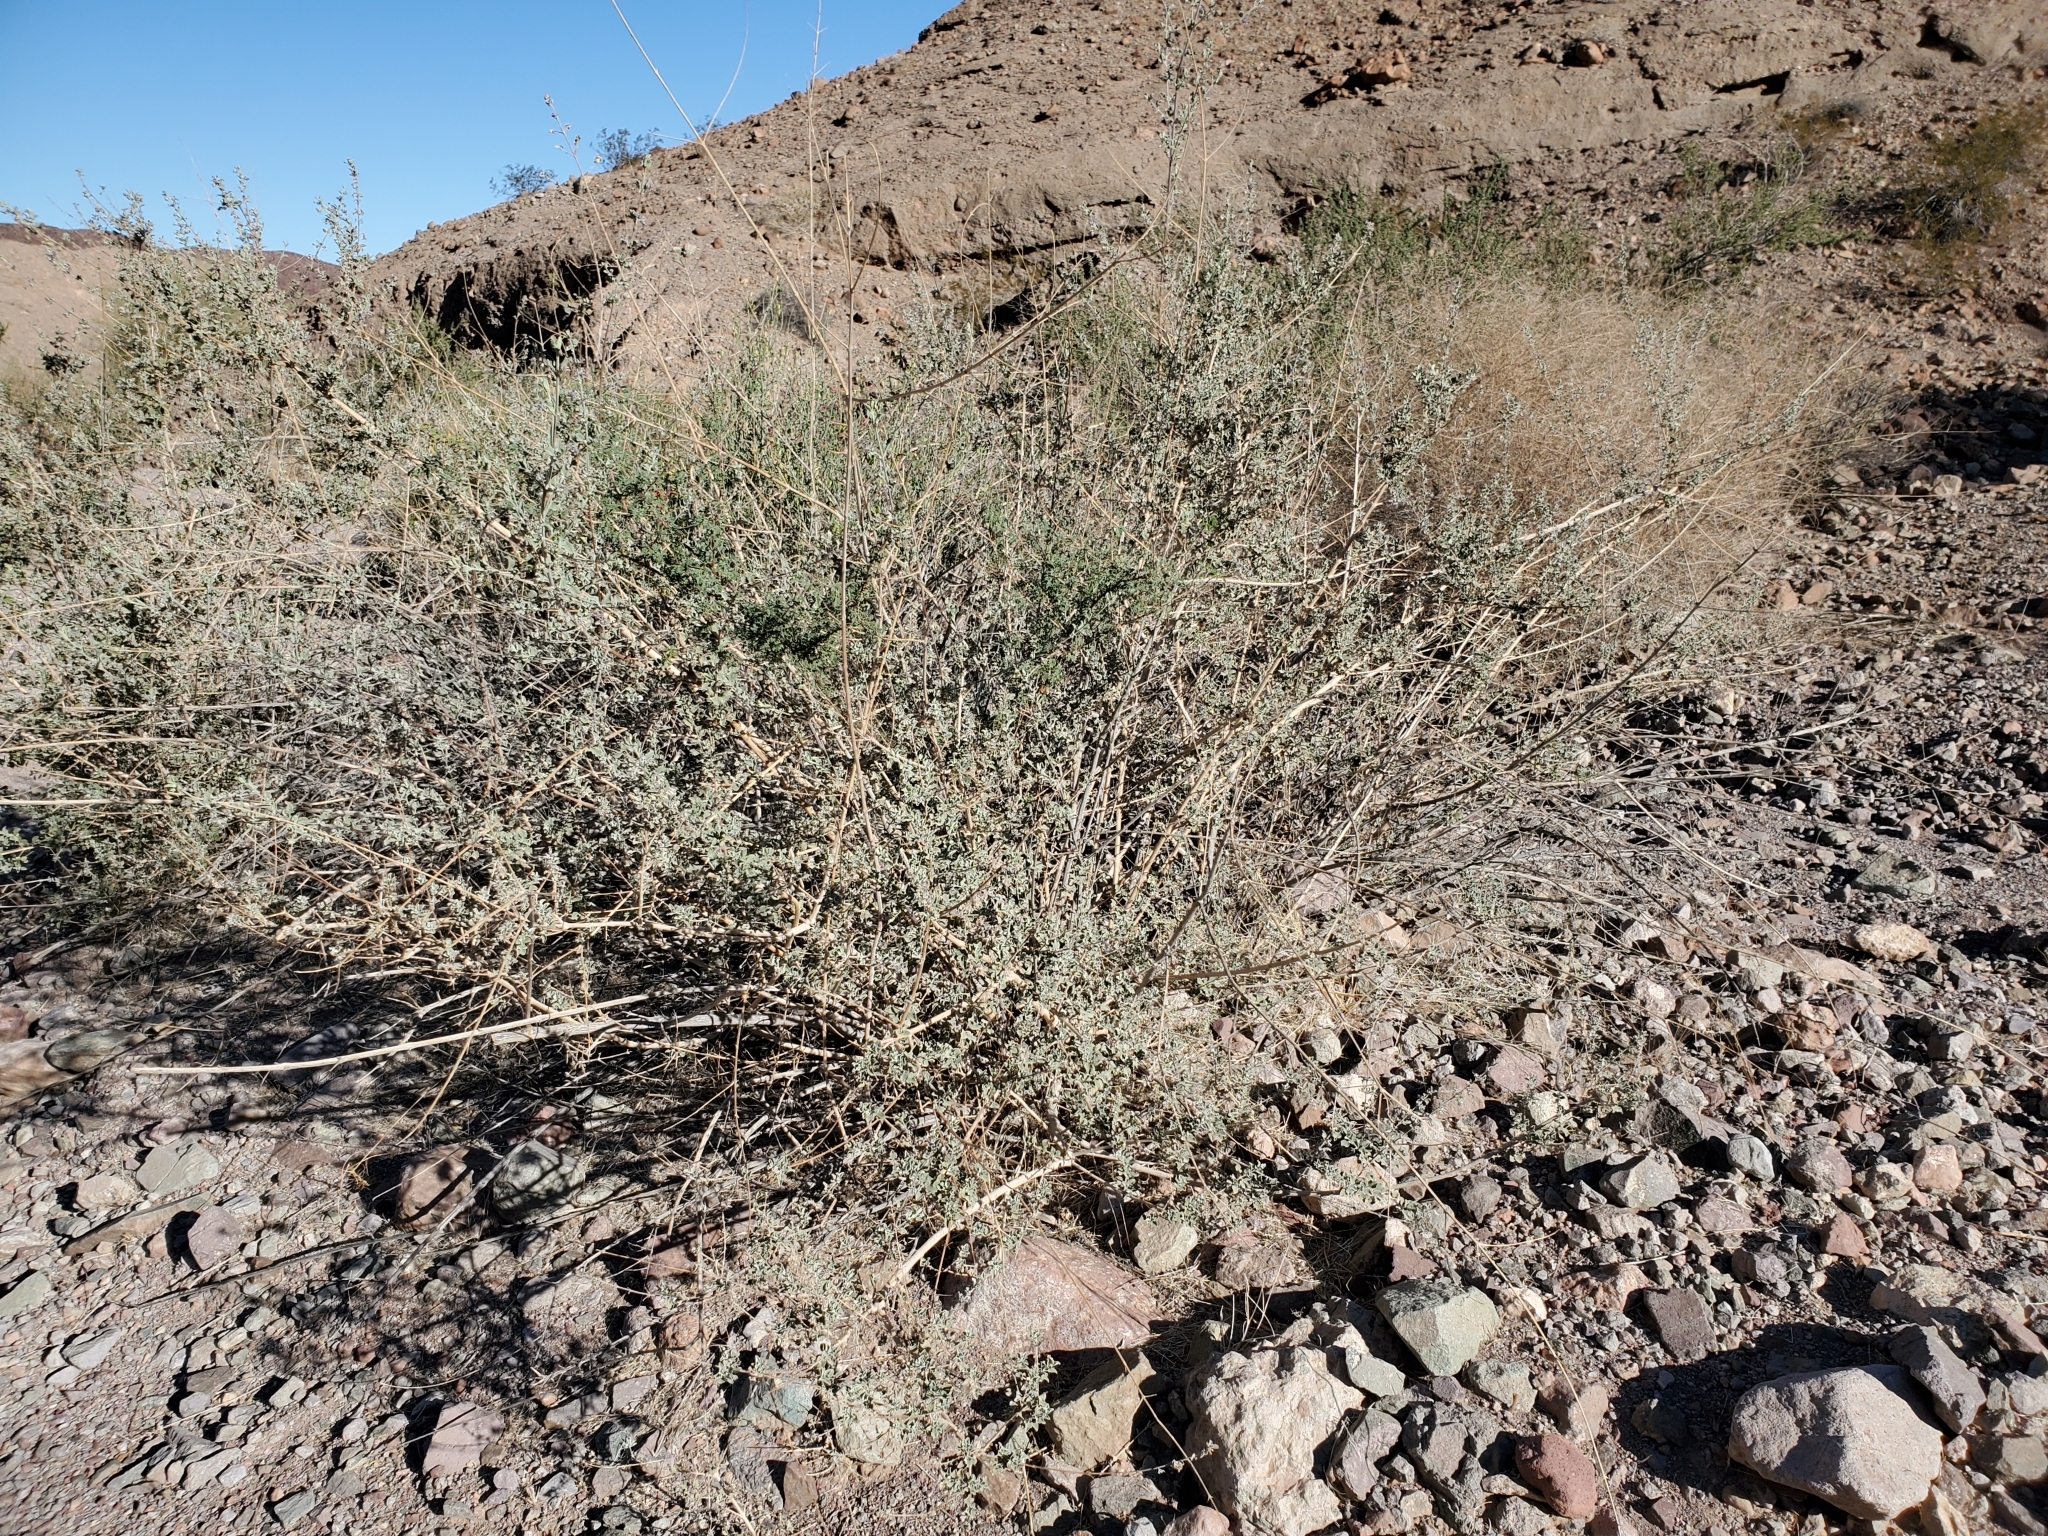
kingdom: Plantae
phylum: Tracheophyta
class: Magnoliopsida
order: Lamiales
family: Lamiaceae
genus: Condea
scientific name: Condea emoryi
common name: Chia
